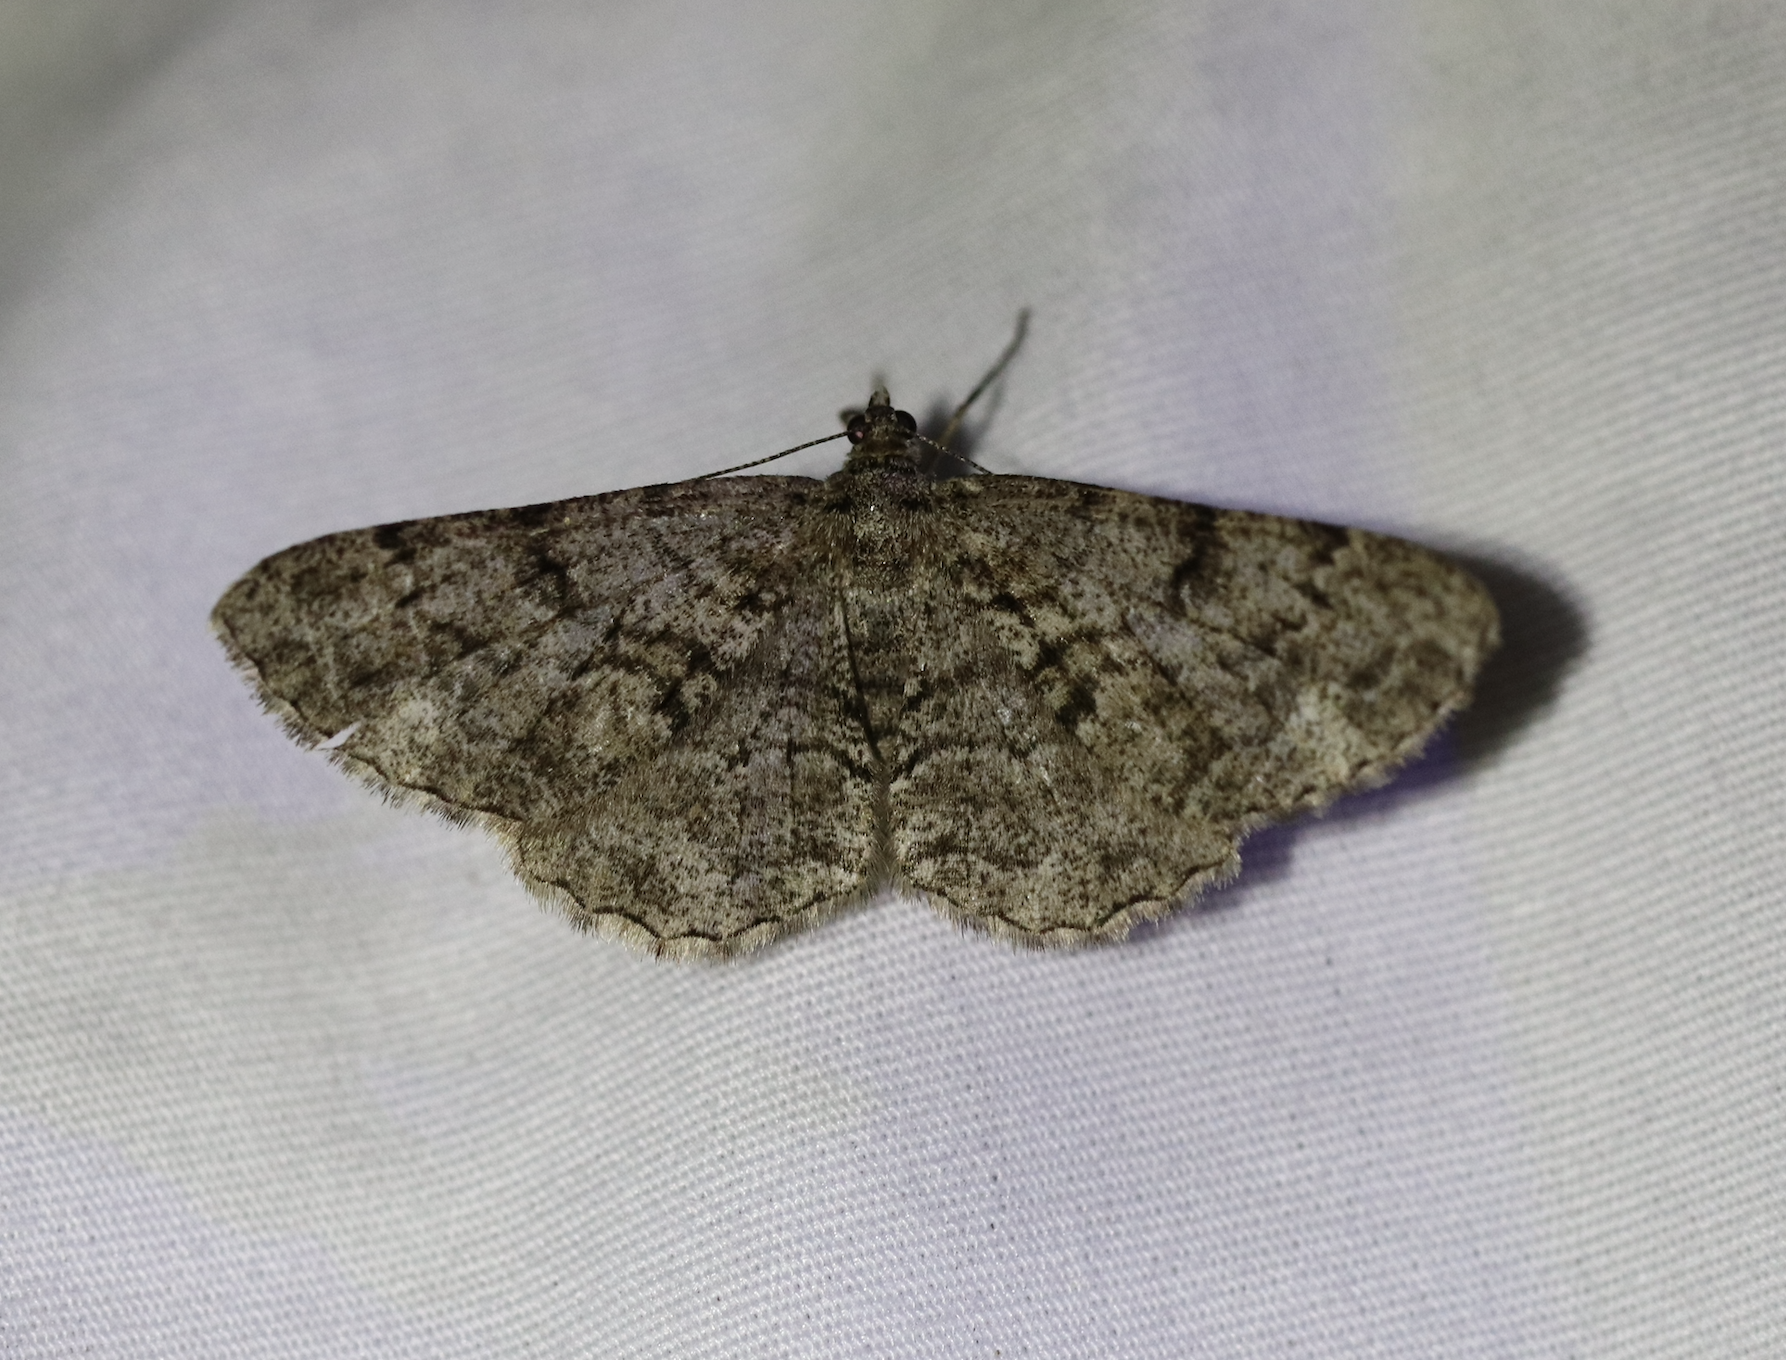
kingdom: Animalia
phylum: Arthropoda
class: Insecta
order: Lepidoptera
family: Geometridae
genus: Peribatodes
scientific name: Peribatodes secundaria
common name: Feathered beauty
